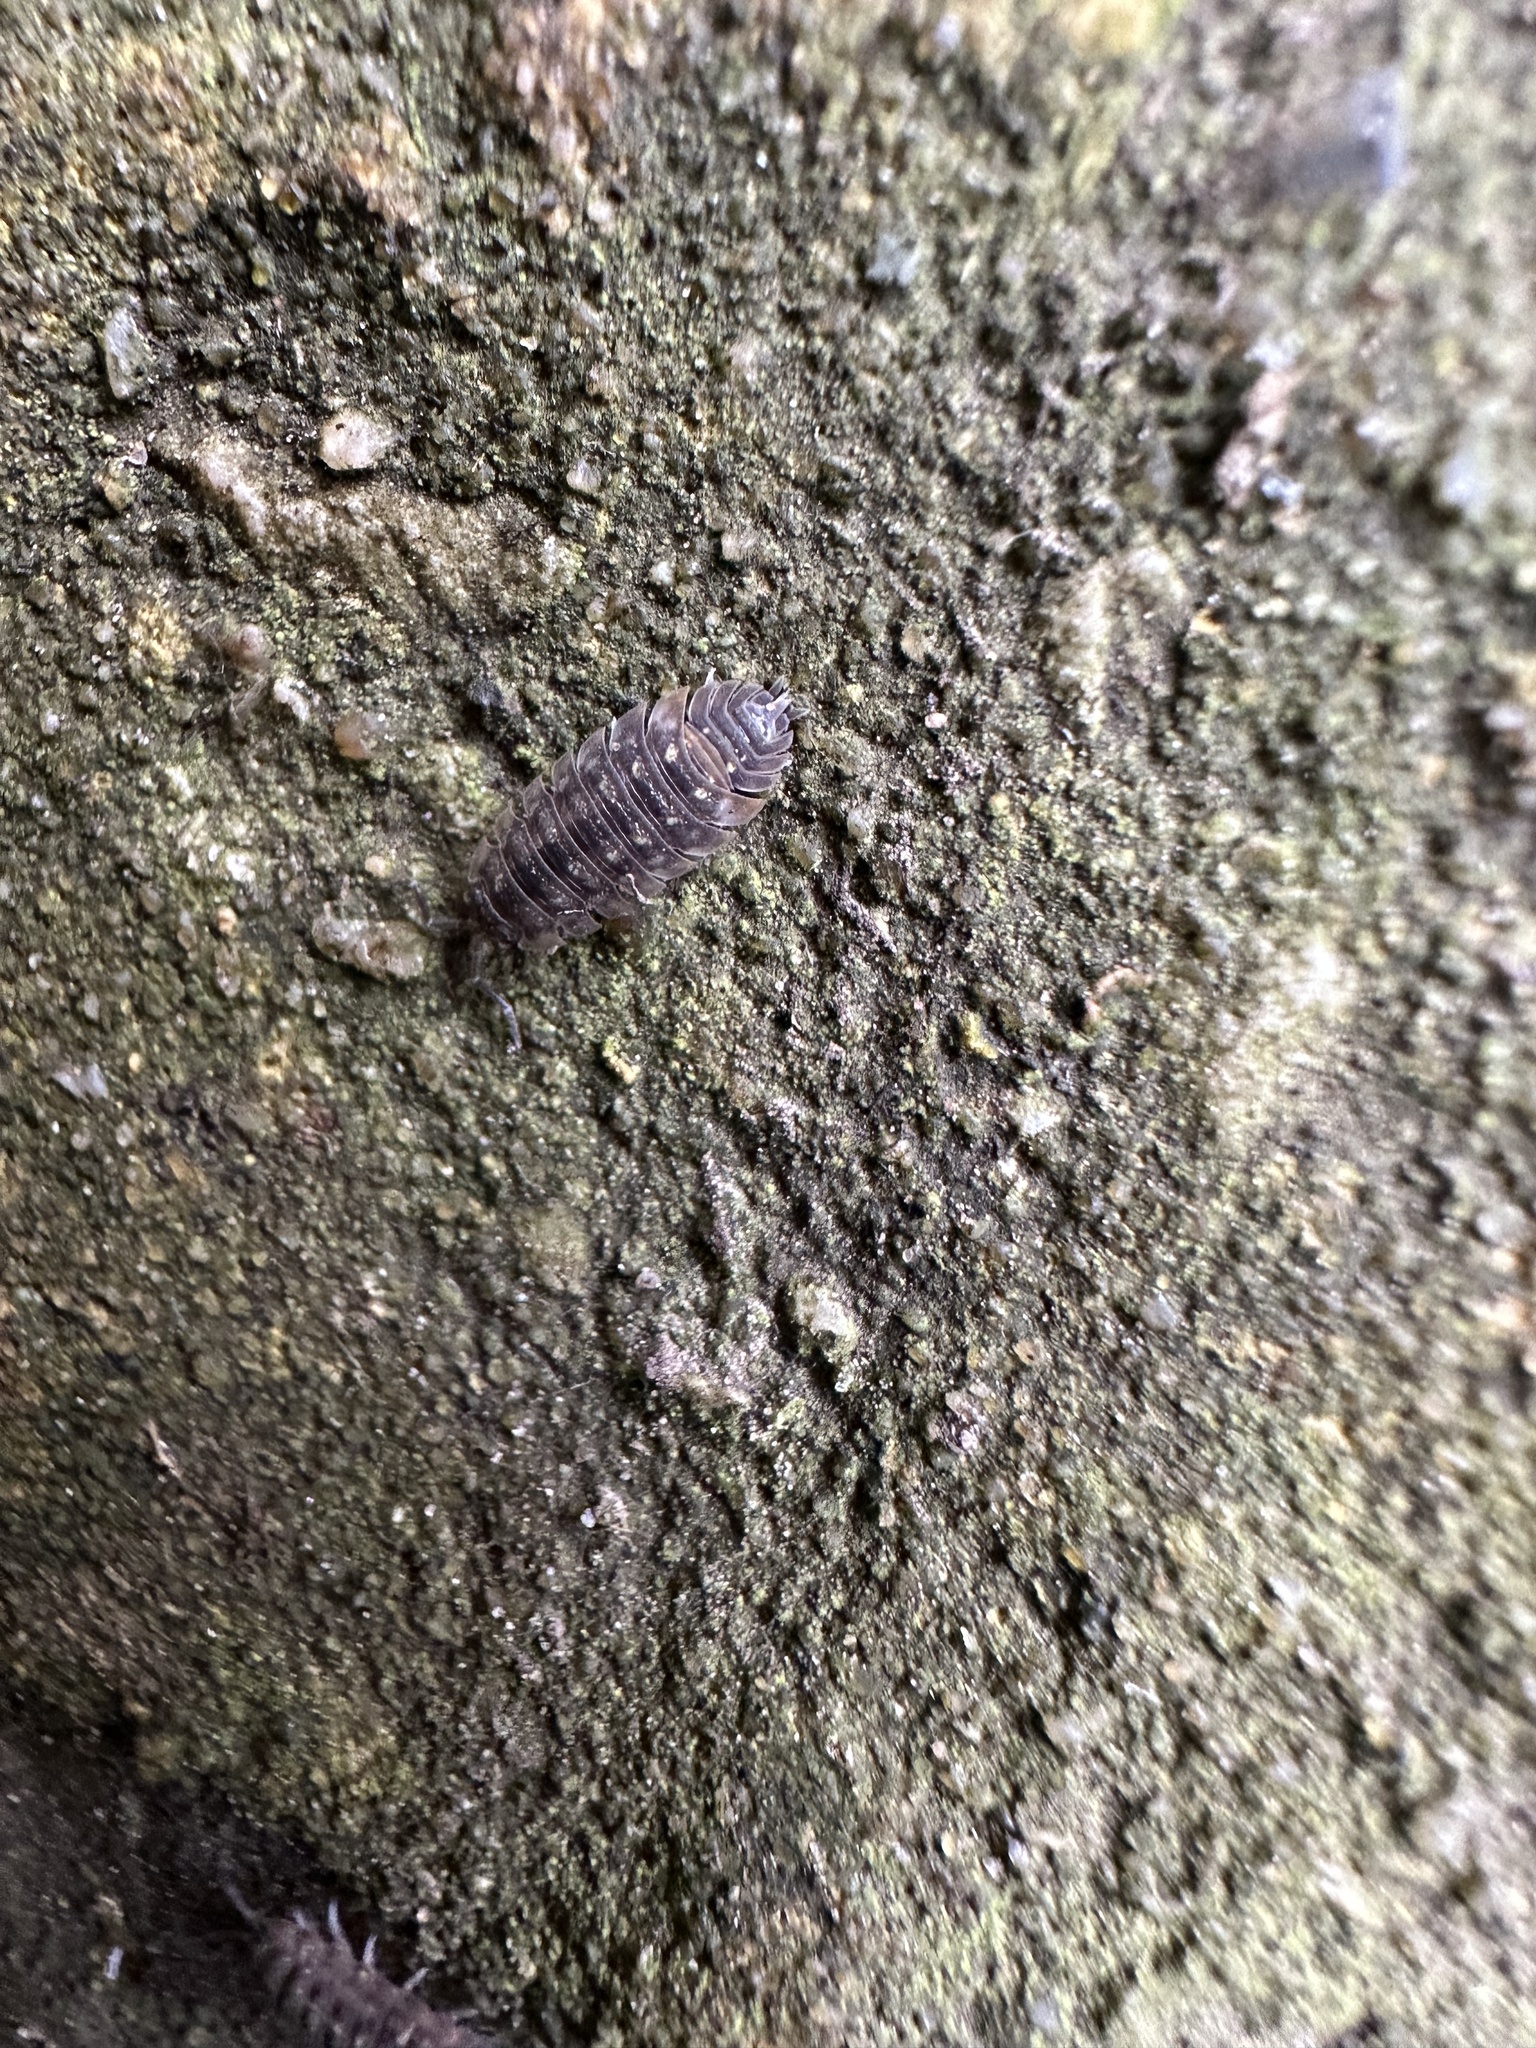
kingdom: Animalia
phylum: Arthropoda
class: Malacostraca
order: Isopoda
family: Oniscidae
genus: Oniscus
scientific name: Oniscus asellus
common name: Common shiny woodlouse
